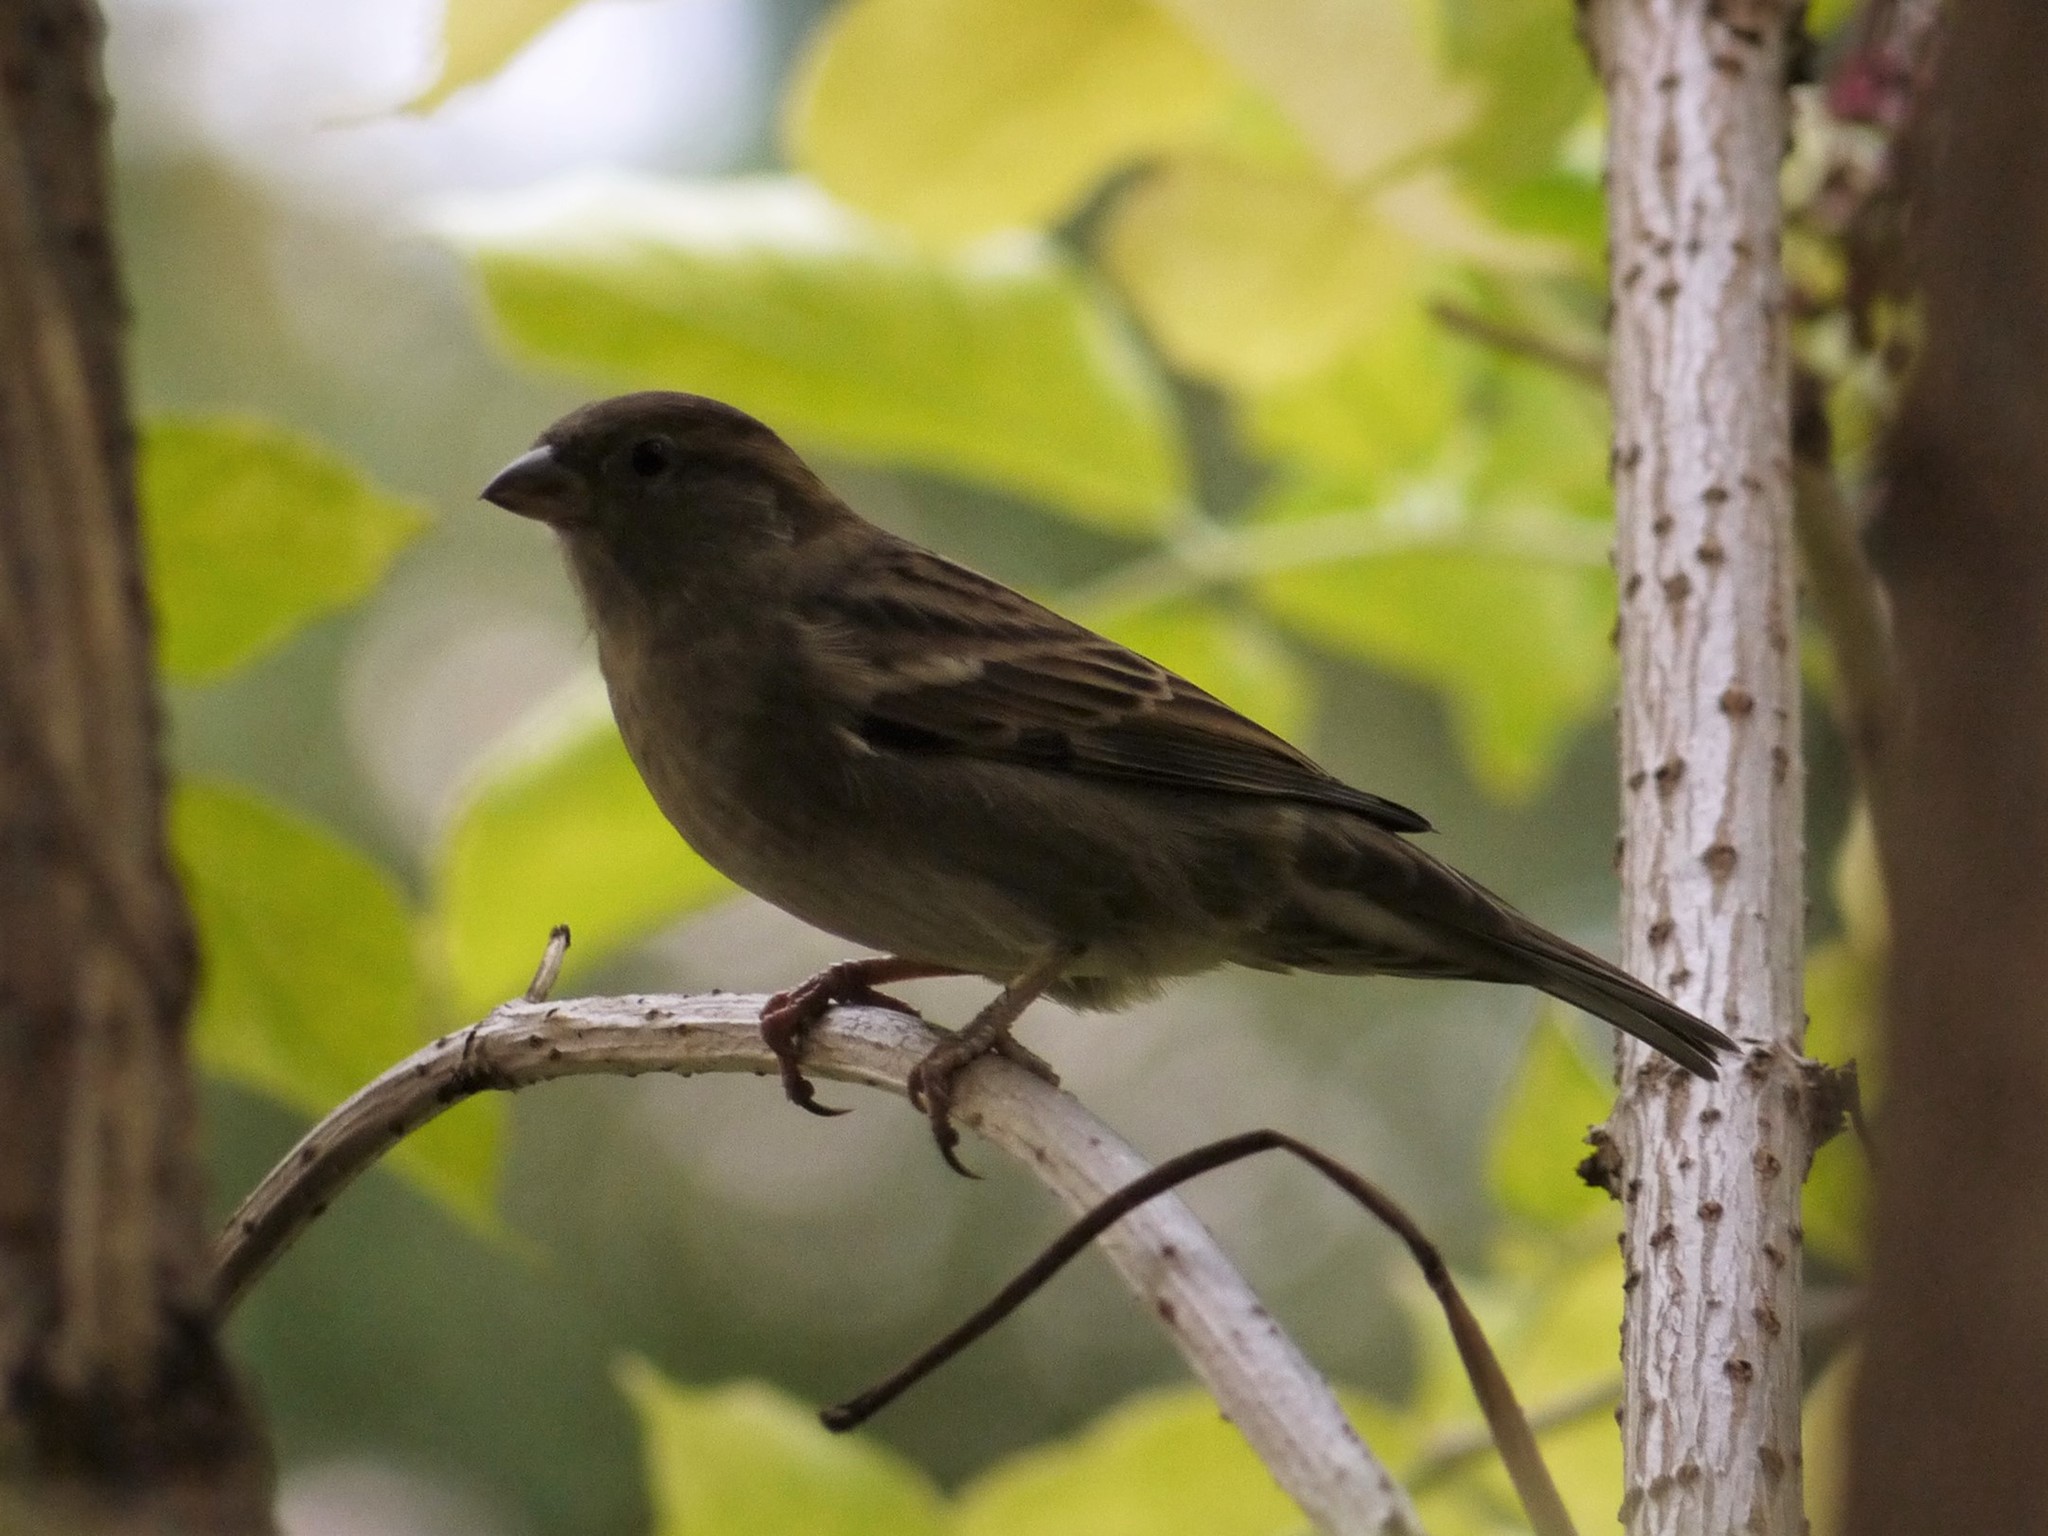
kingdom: Animalia
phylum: Chordata
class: Aves
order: Passeriformes
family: Passeridae
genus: Passer
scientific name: Passer domesticus
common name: House sparrow
